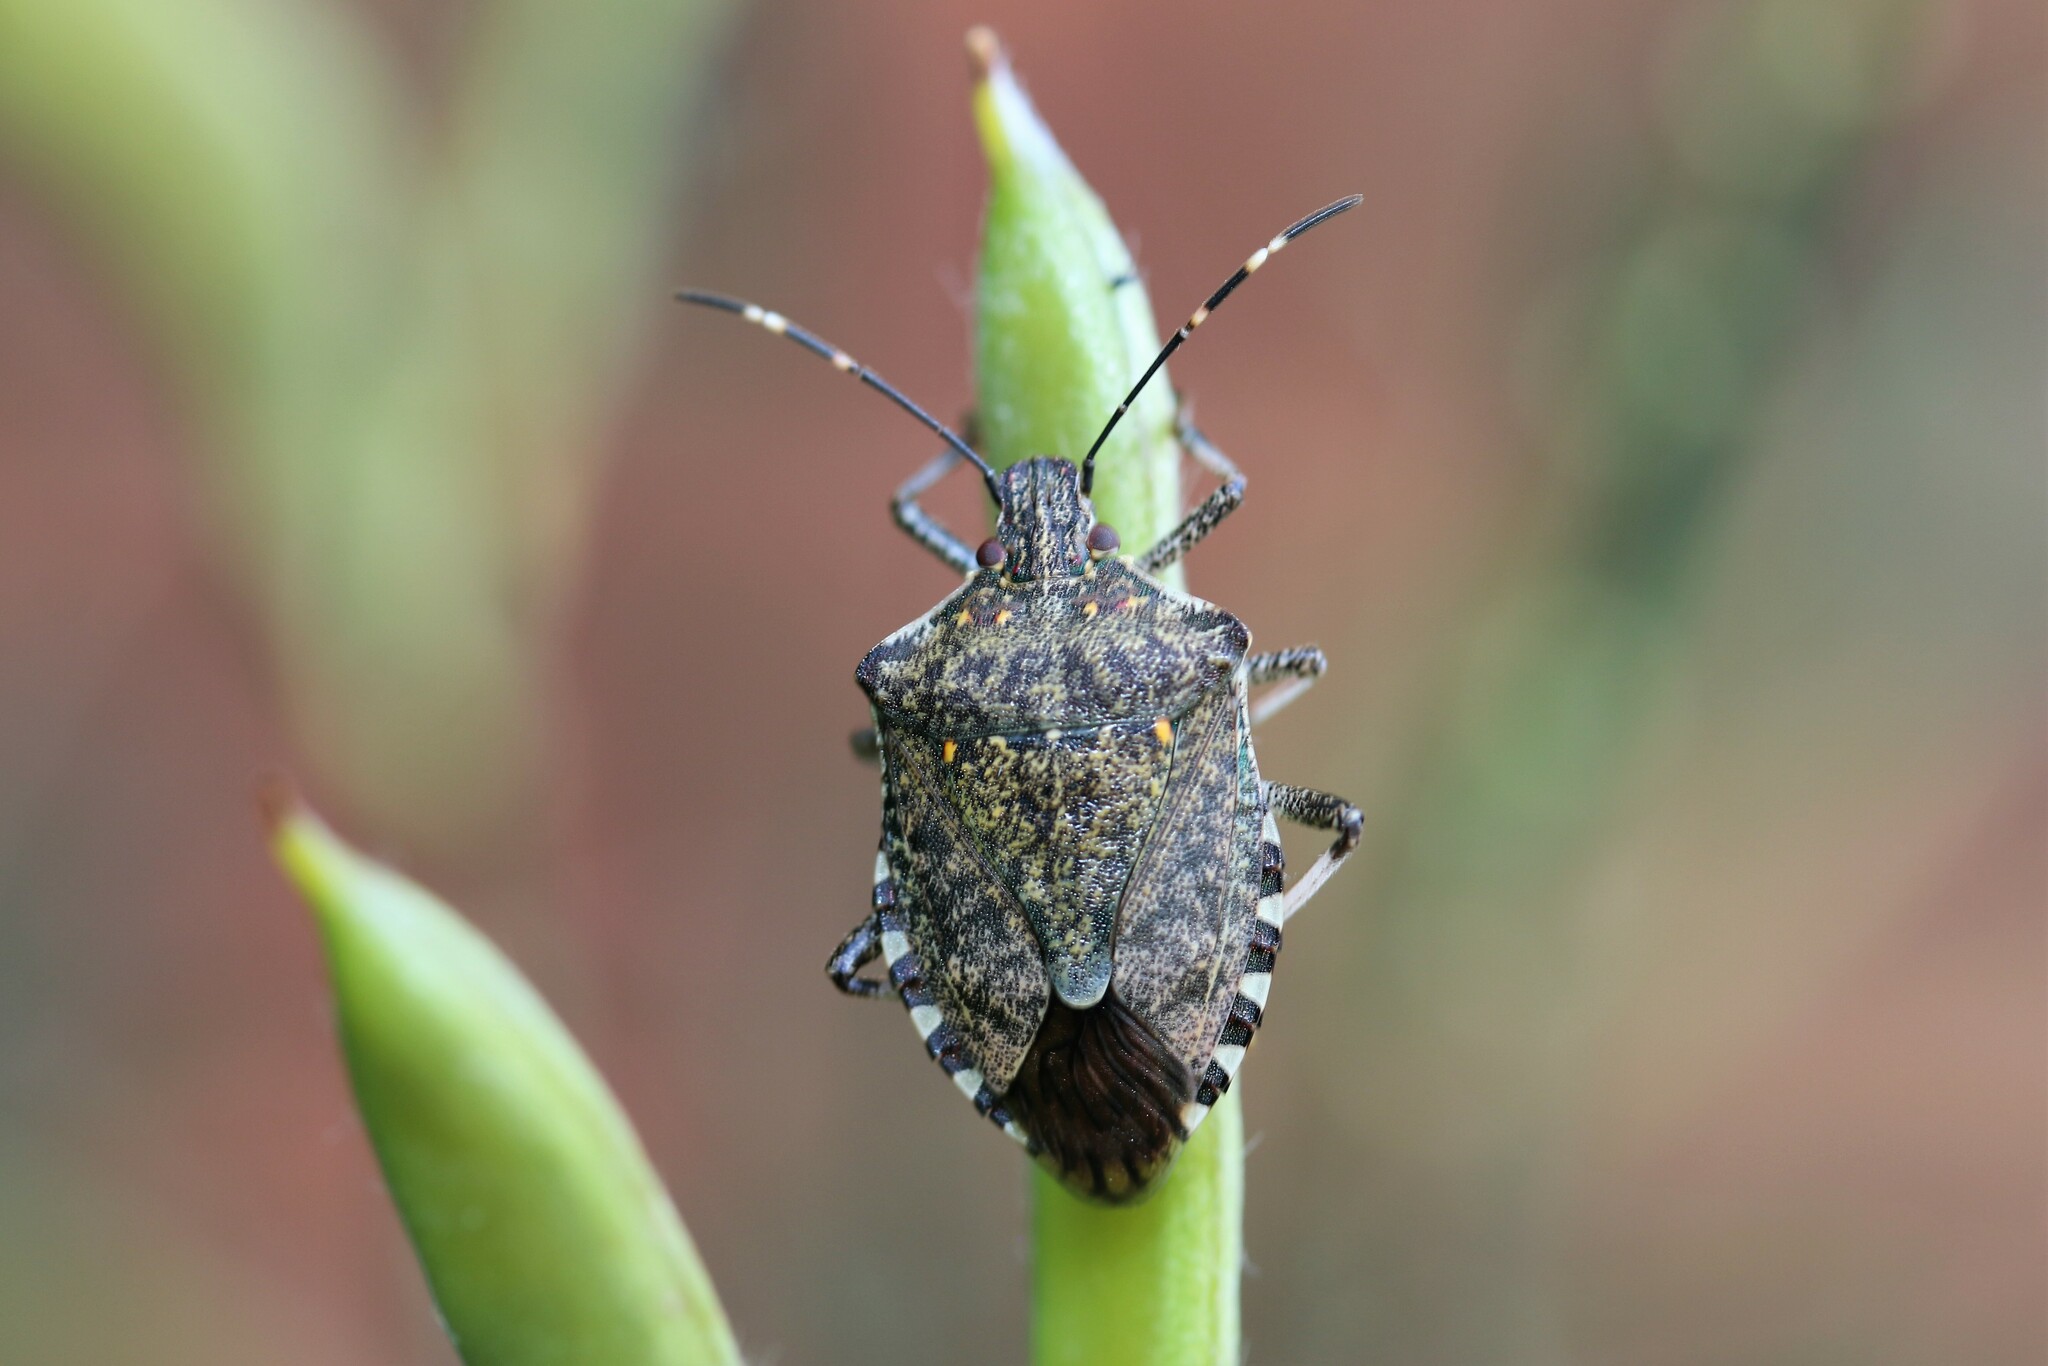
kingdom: Animalia
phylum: Arthropoda
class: Insecta
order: Hemiptera
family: Pentatomidae
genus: Halyomorpha
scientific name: Halyomorpha halys
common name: Brown marmorated stink bug
